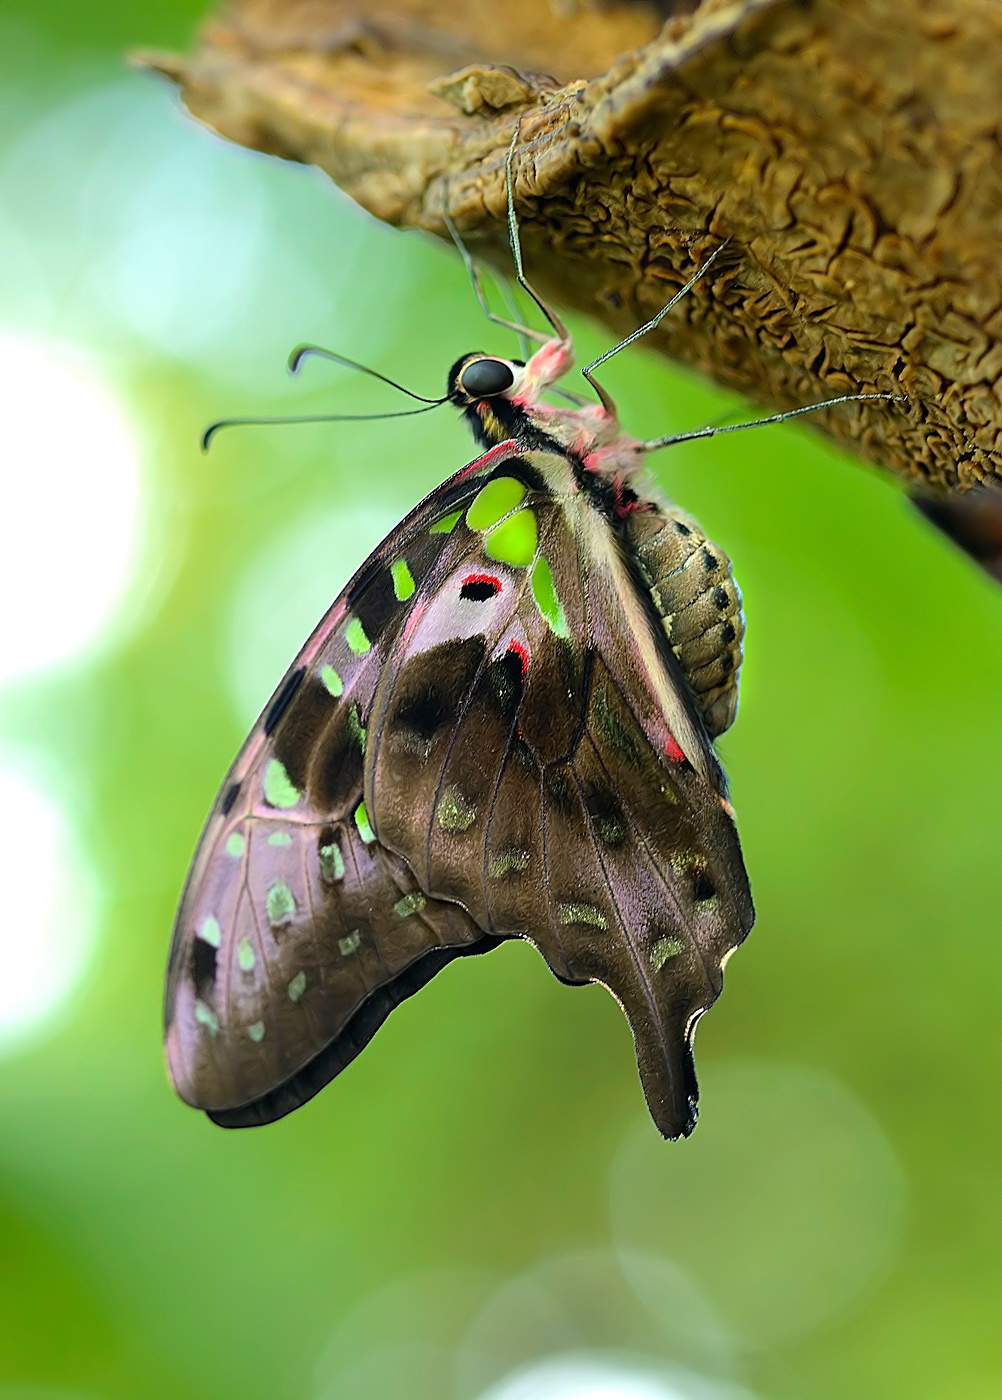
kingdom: Animalia
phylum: Arthropoda
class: Insecta
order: Lepidoptera
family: Papilionidae
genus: Graphium
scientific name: Graphium agamemnon
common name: Tailed jay
